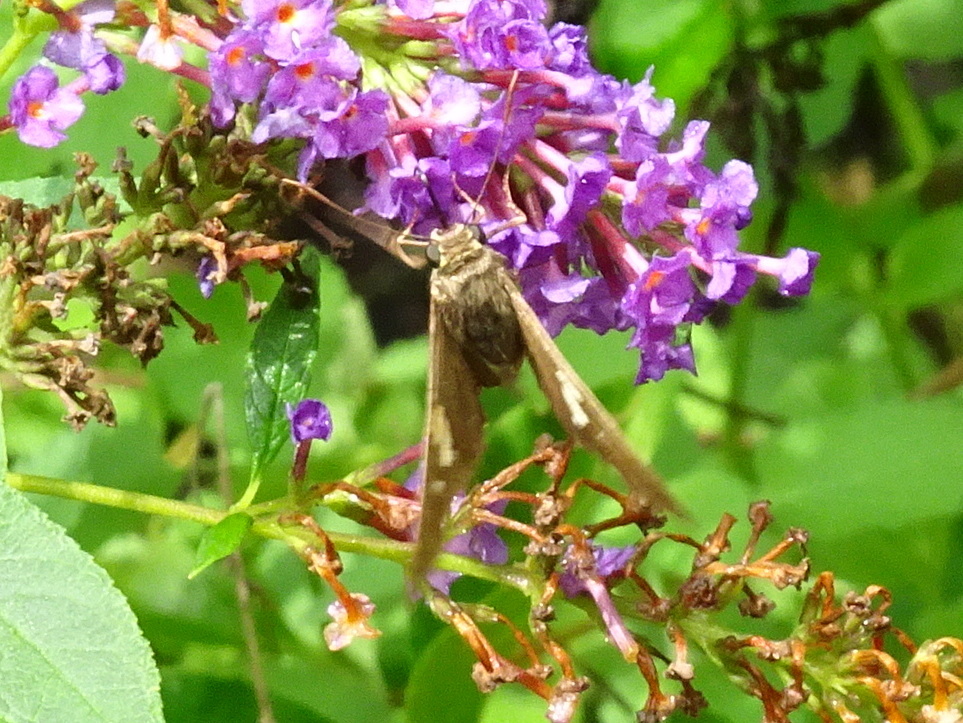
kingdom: Animalia
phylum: Arthropoda
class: Insecta
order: Lepidoptera
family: Hesperiidae
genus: Epargyreus
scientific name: Epargyreus clarus
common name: Silver-spotted skipper
